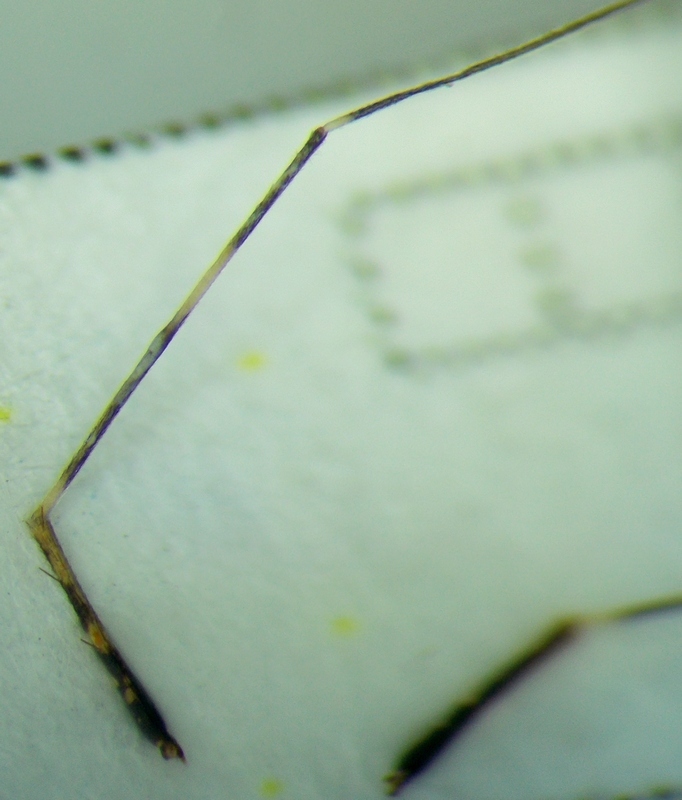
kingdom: Animalia
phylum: Arthropoda
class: Insecta
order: Hemiptera
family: Miridae
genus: Phytocoris
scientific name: Phytocoris tiliae
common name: Plant bug
